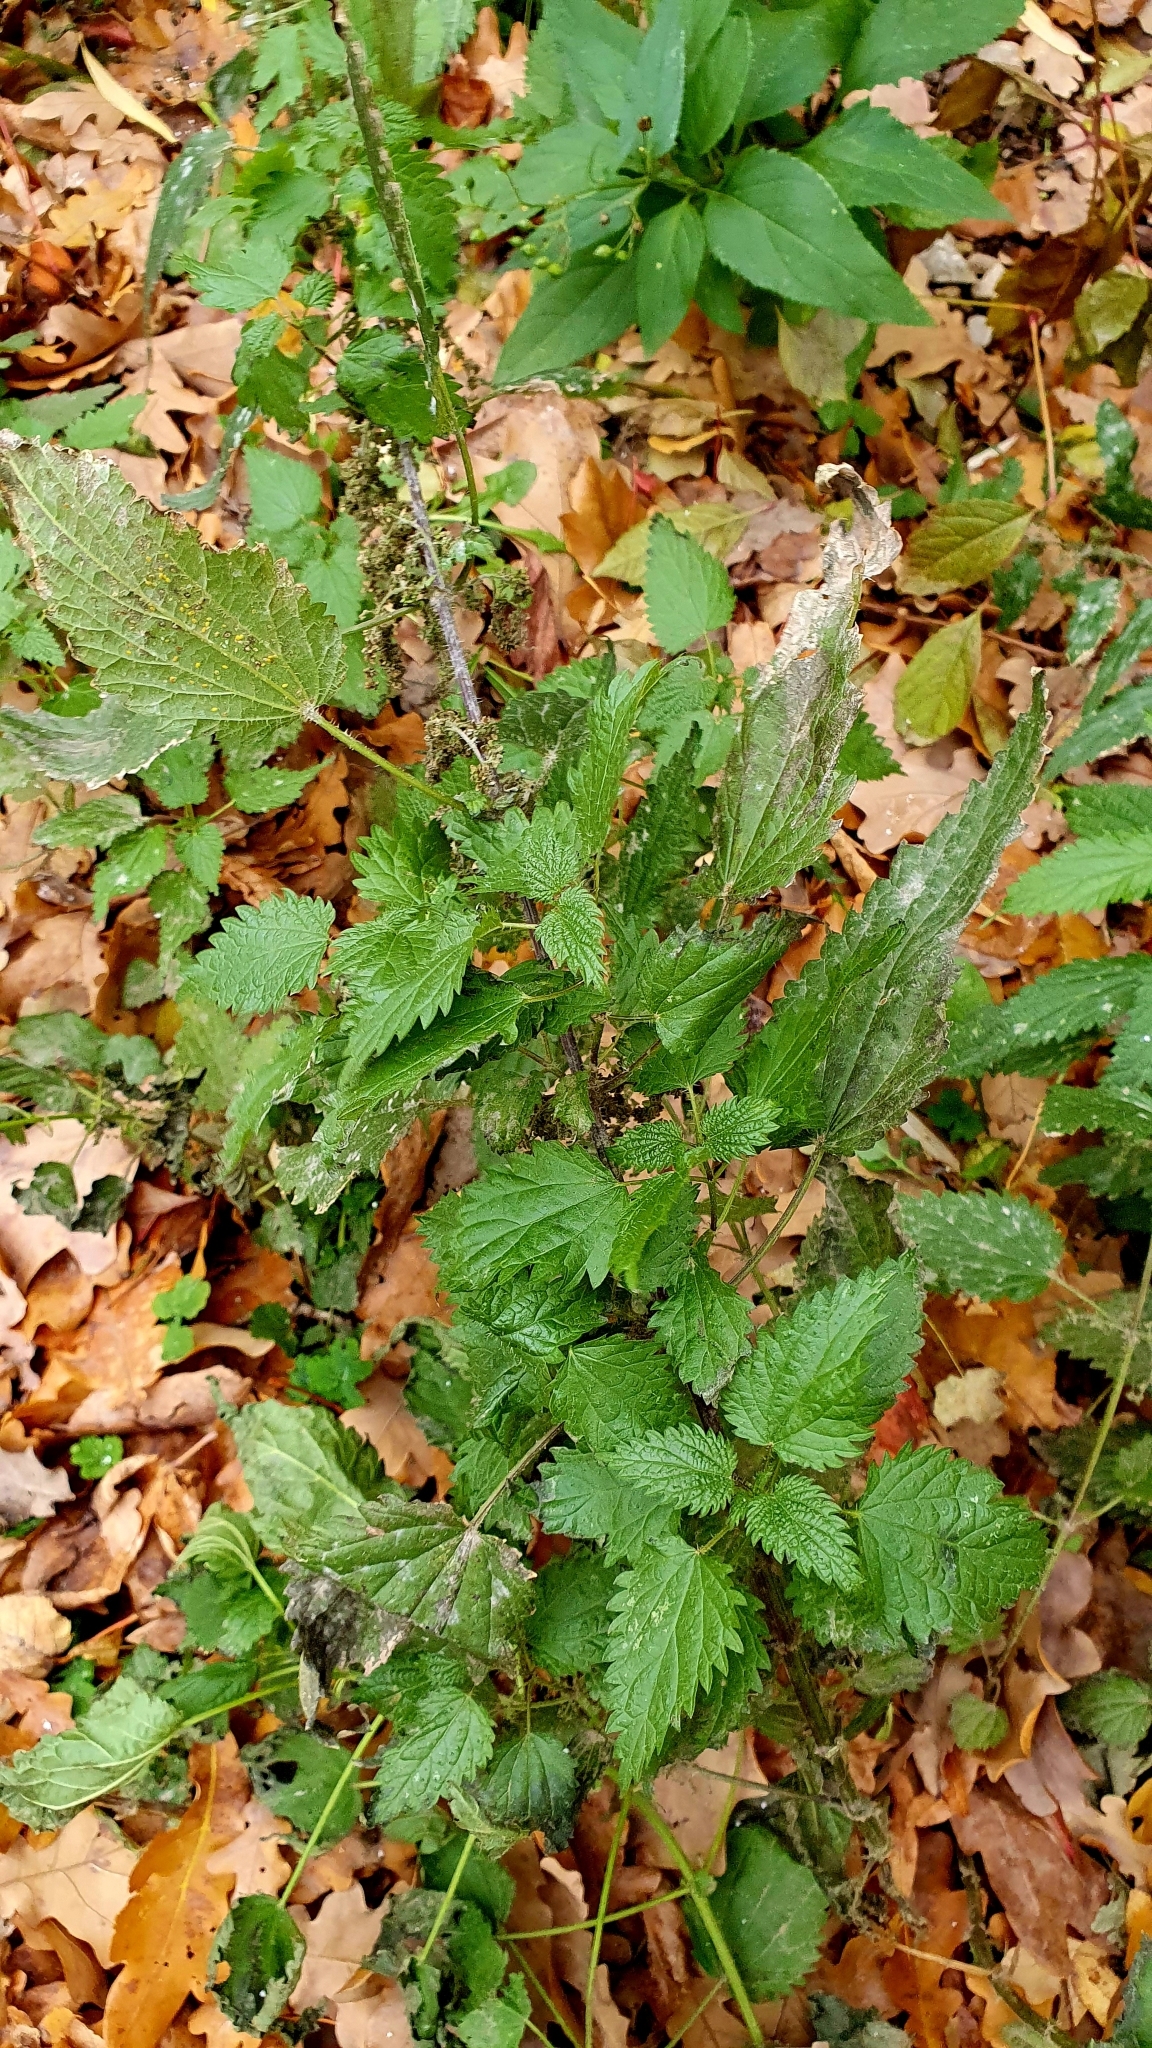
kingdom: Plantae
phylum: Tracheophyta
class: Magnoliopsida
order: Rosales
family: Urticaceae
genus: Urtica
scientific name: Urtica dioica
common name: Common nettle
